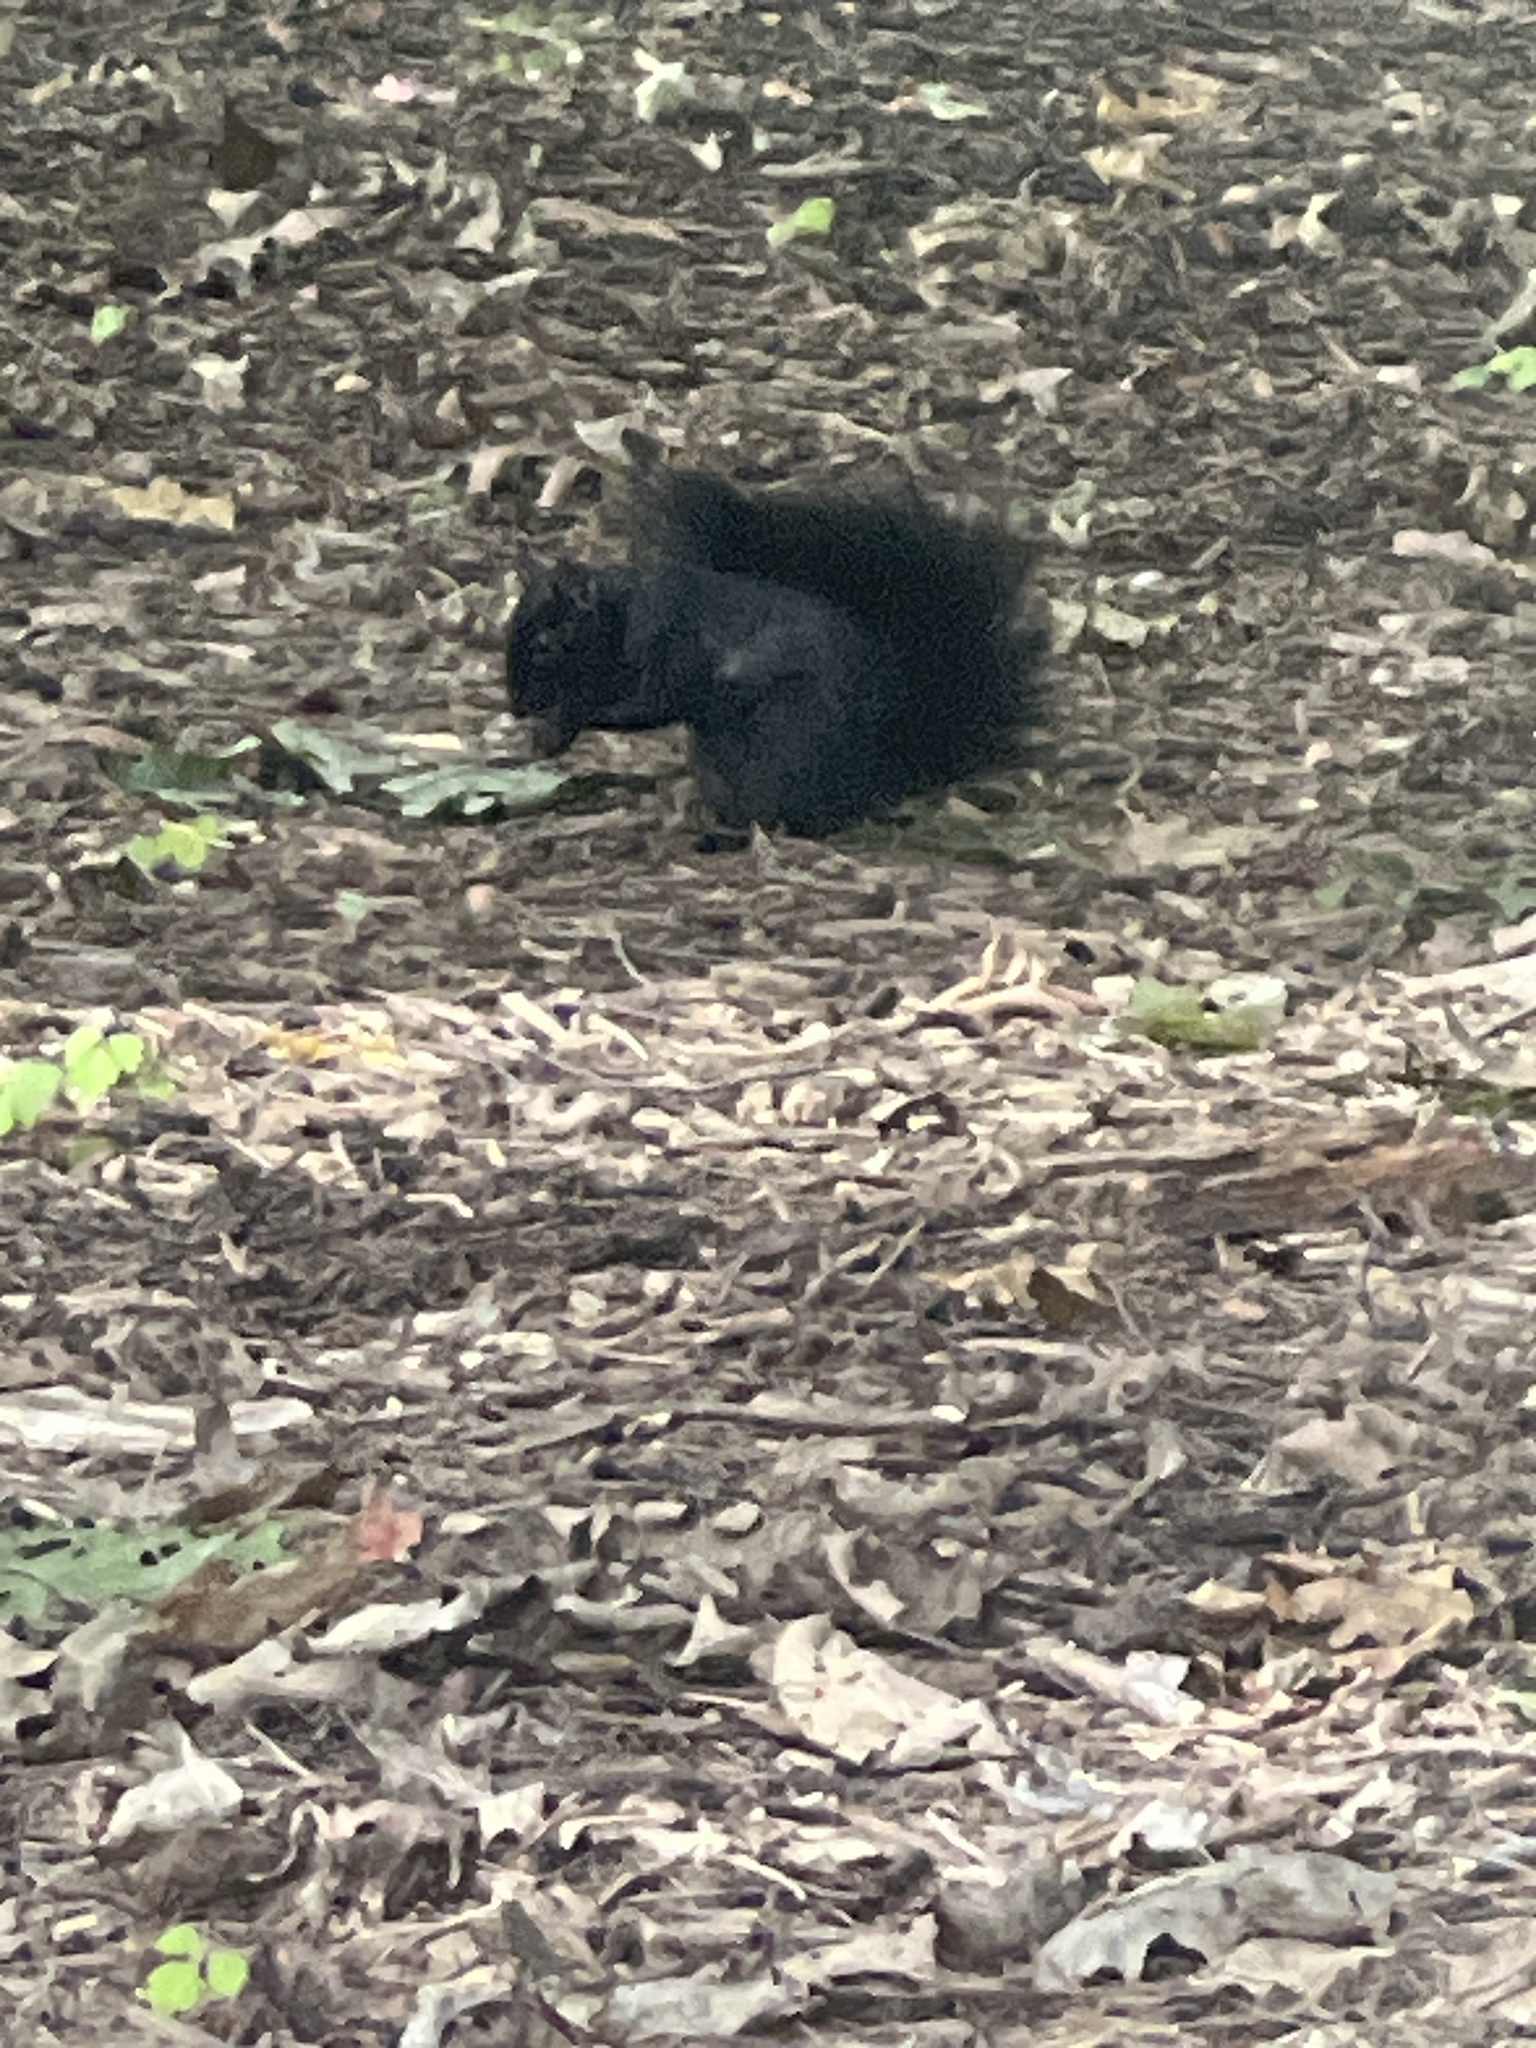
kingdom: Animalia
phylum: Chordata
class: Mammalia
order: Rodentia
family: Sciuridae
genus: Sciurus
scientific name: Sciurus carolinensis
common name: Eastern gray squirrel
